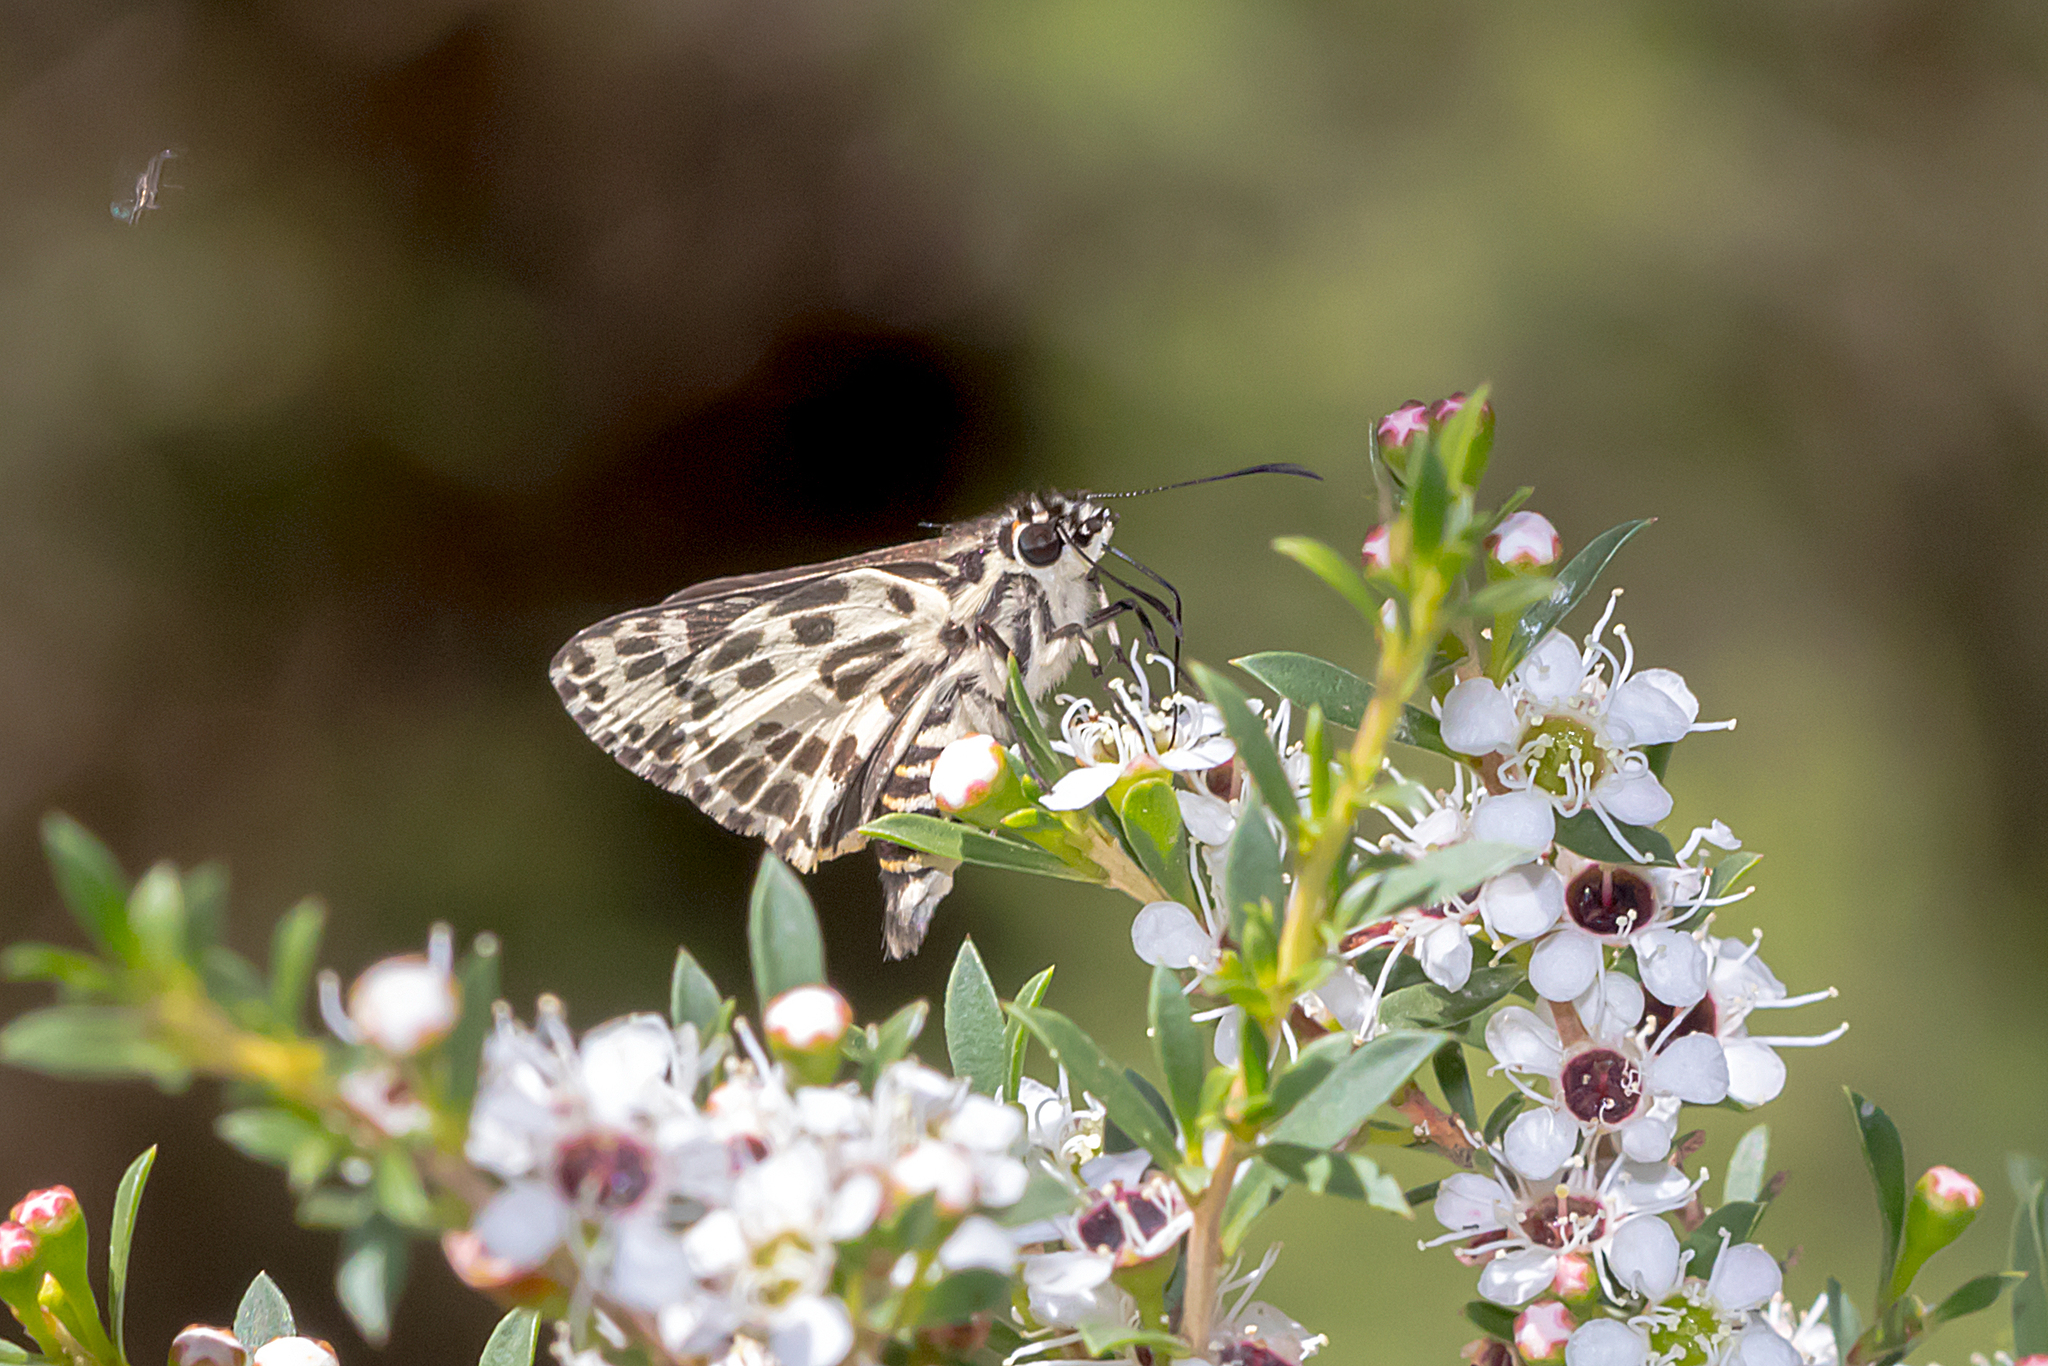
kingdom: Animalia
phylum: Arthropoda
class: Insecta
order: Lepidoptera
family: Hesperiidae
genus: Hesperilla
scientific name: Hesperilla ornata
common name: Spotted sedge-skipper
